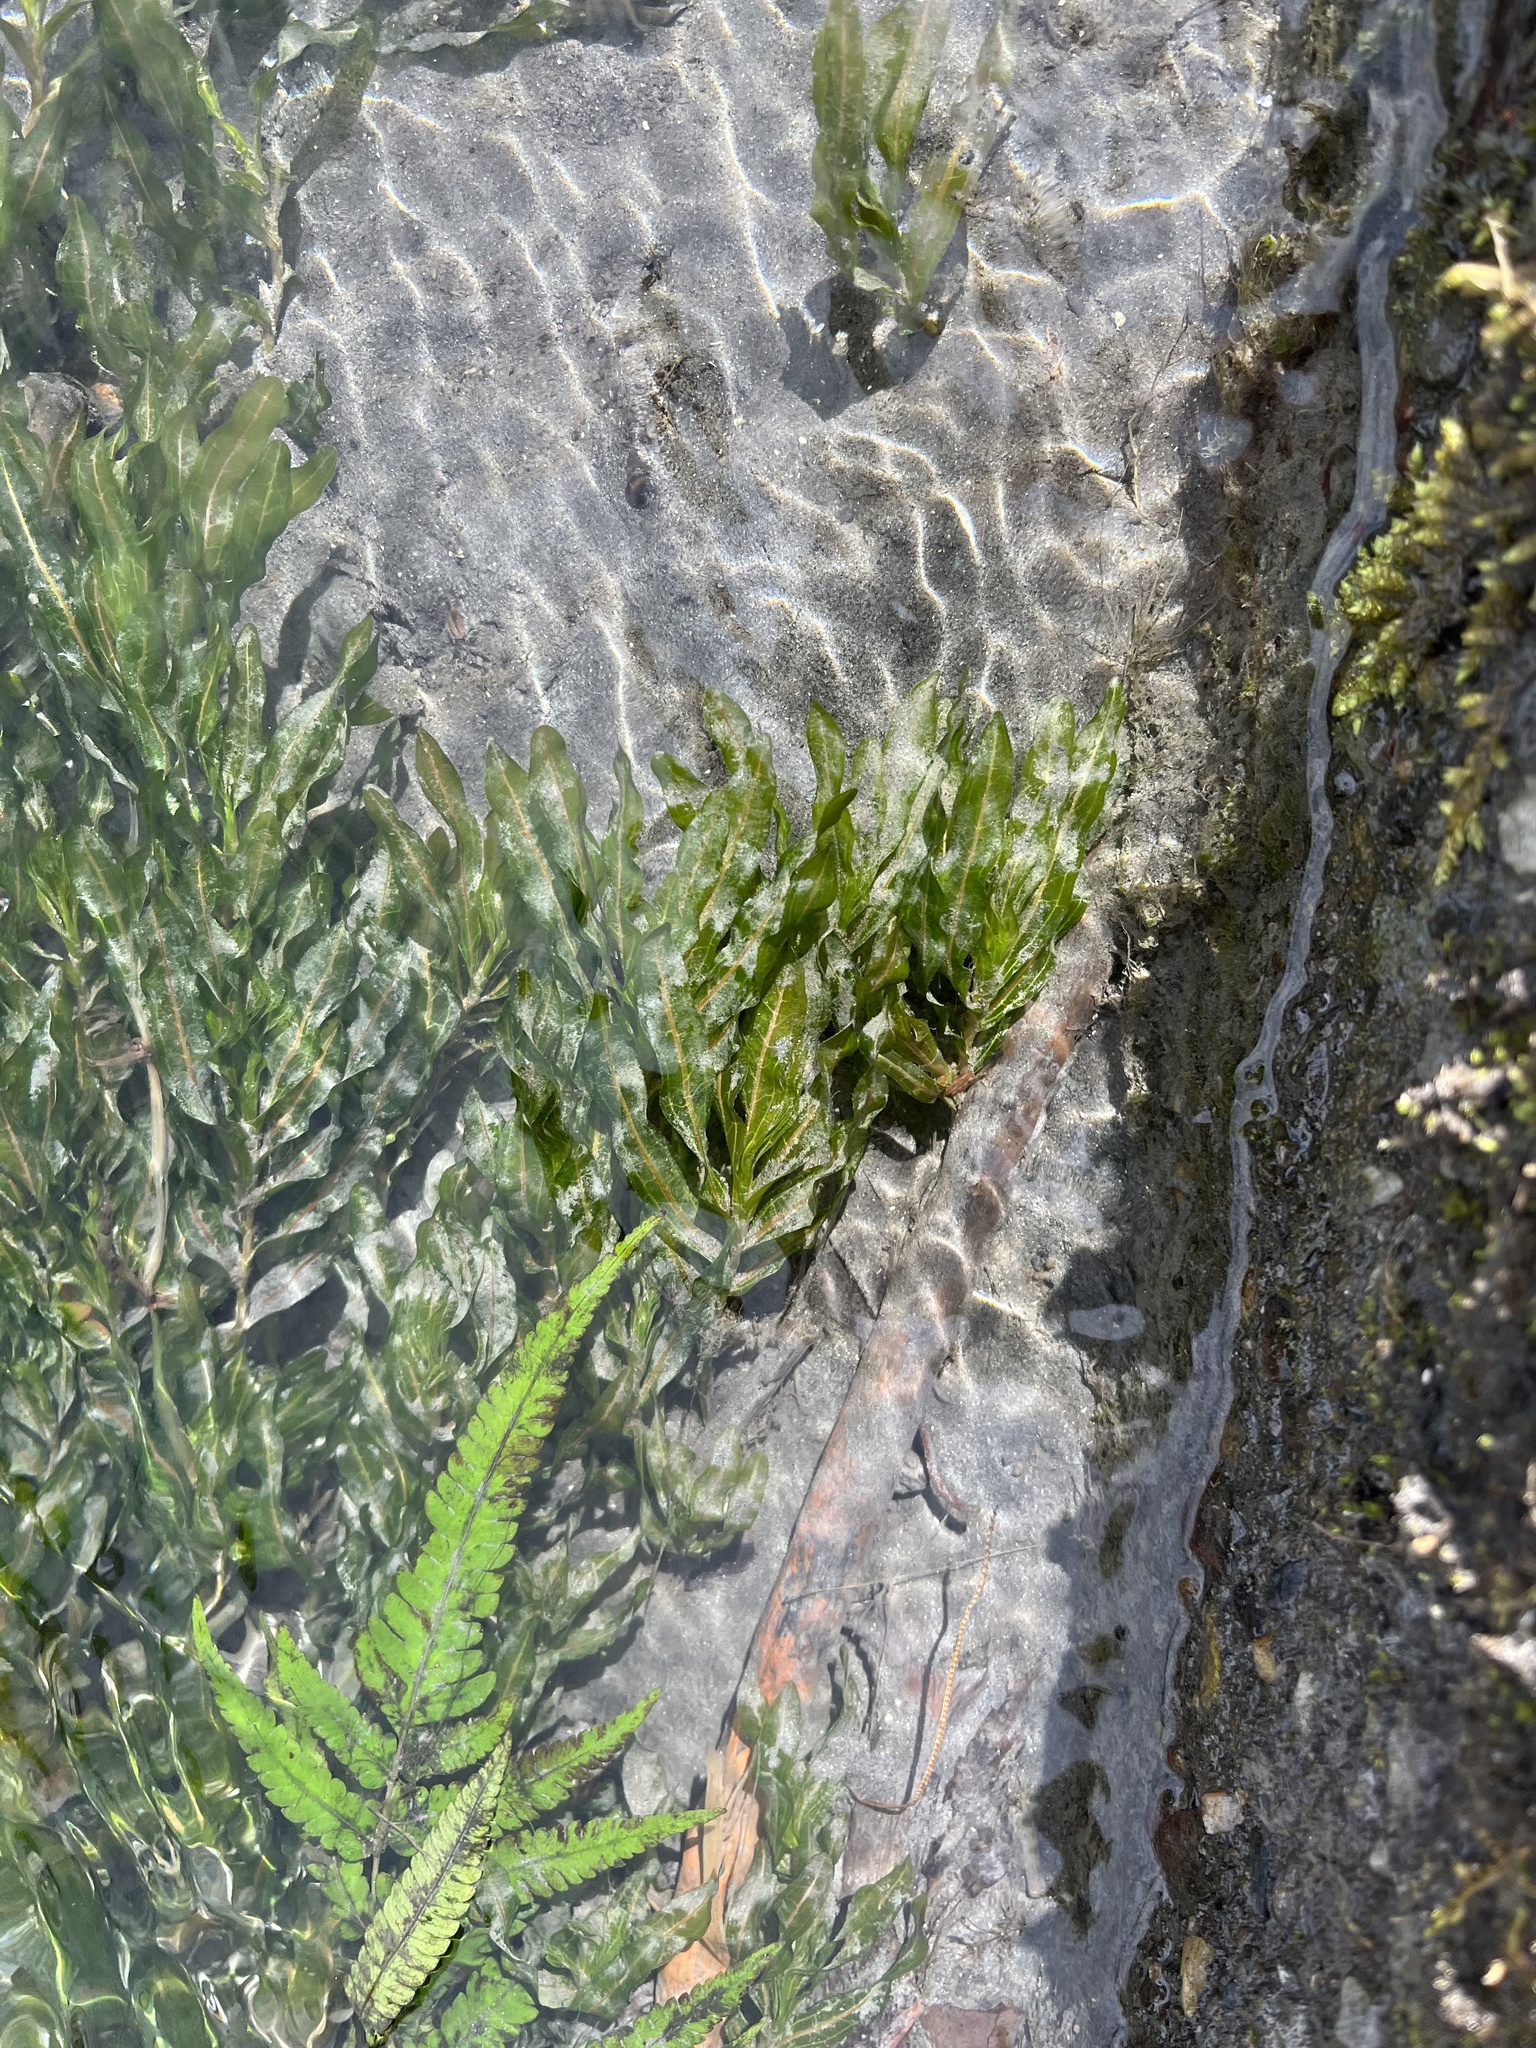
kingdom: Plantae
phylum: Tracheophyta
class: Liliopsida
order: Alismatales
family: Potamogetonaceae
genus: Potamogeton
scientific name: Potamogeton crispus
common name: Curled pondweed
